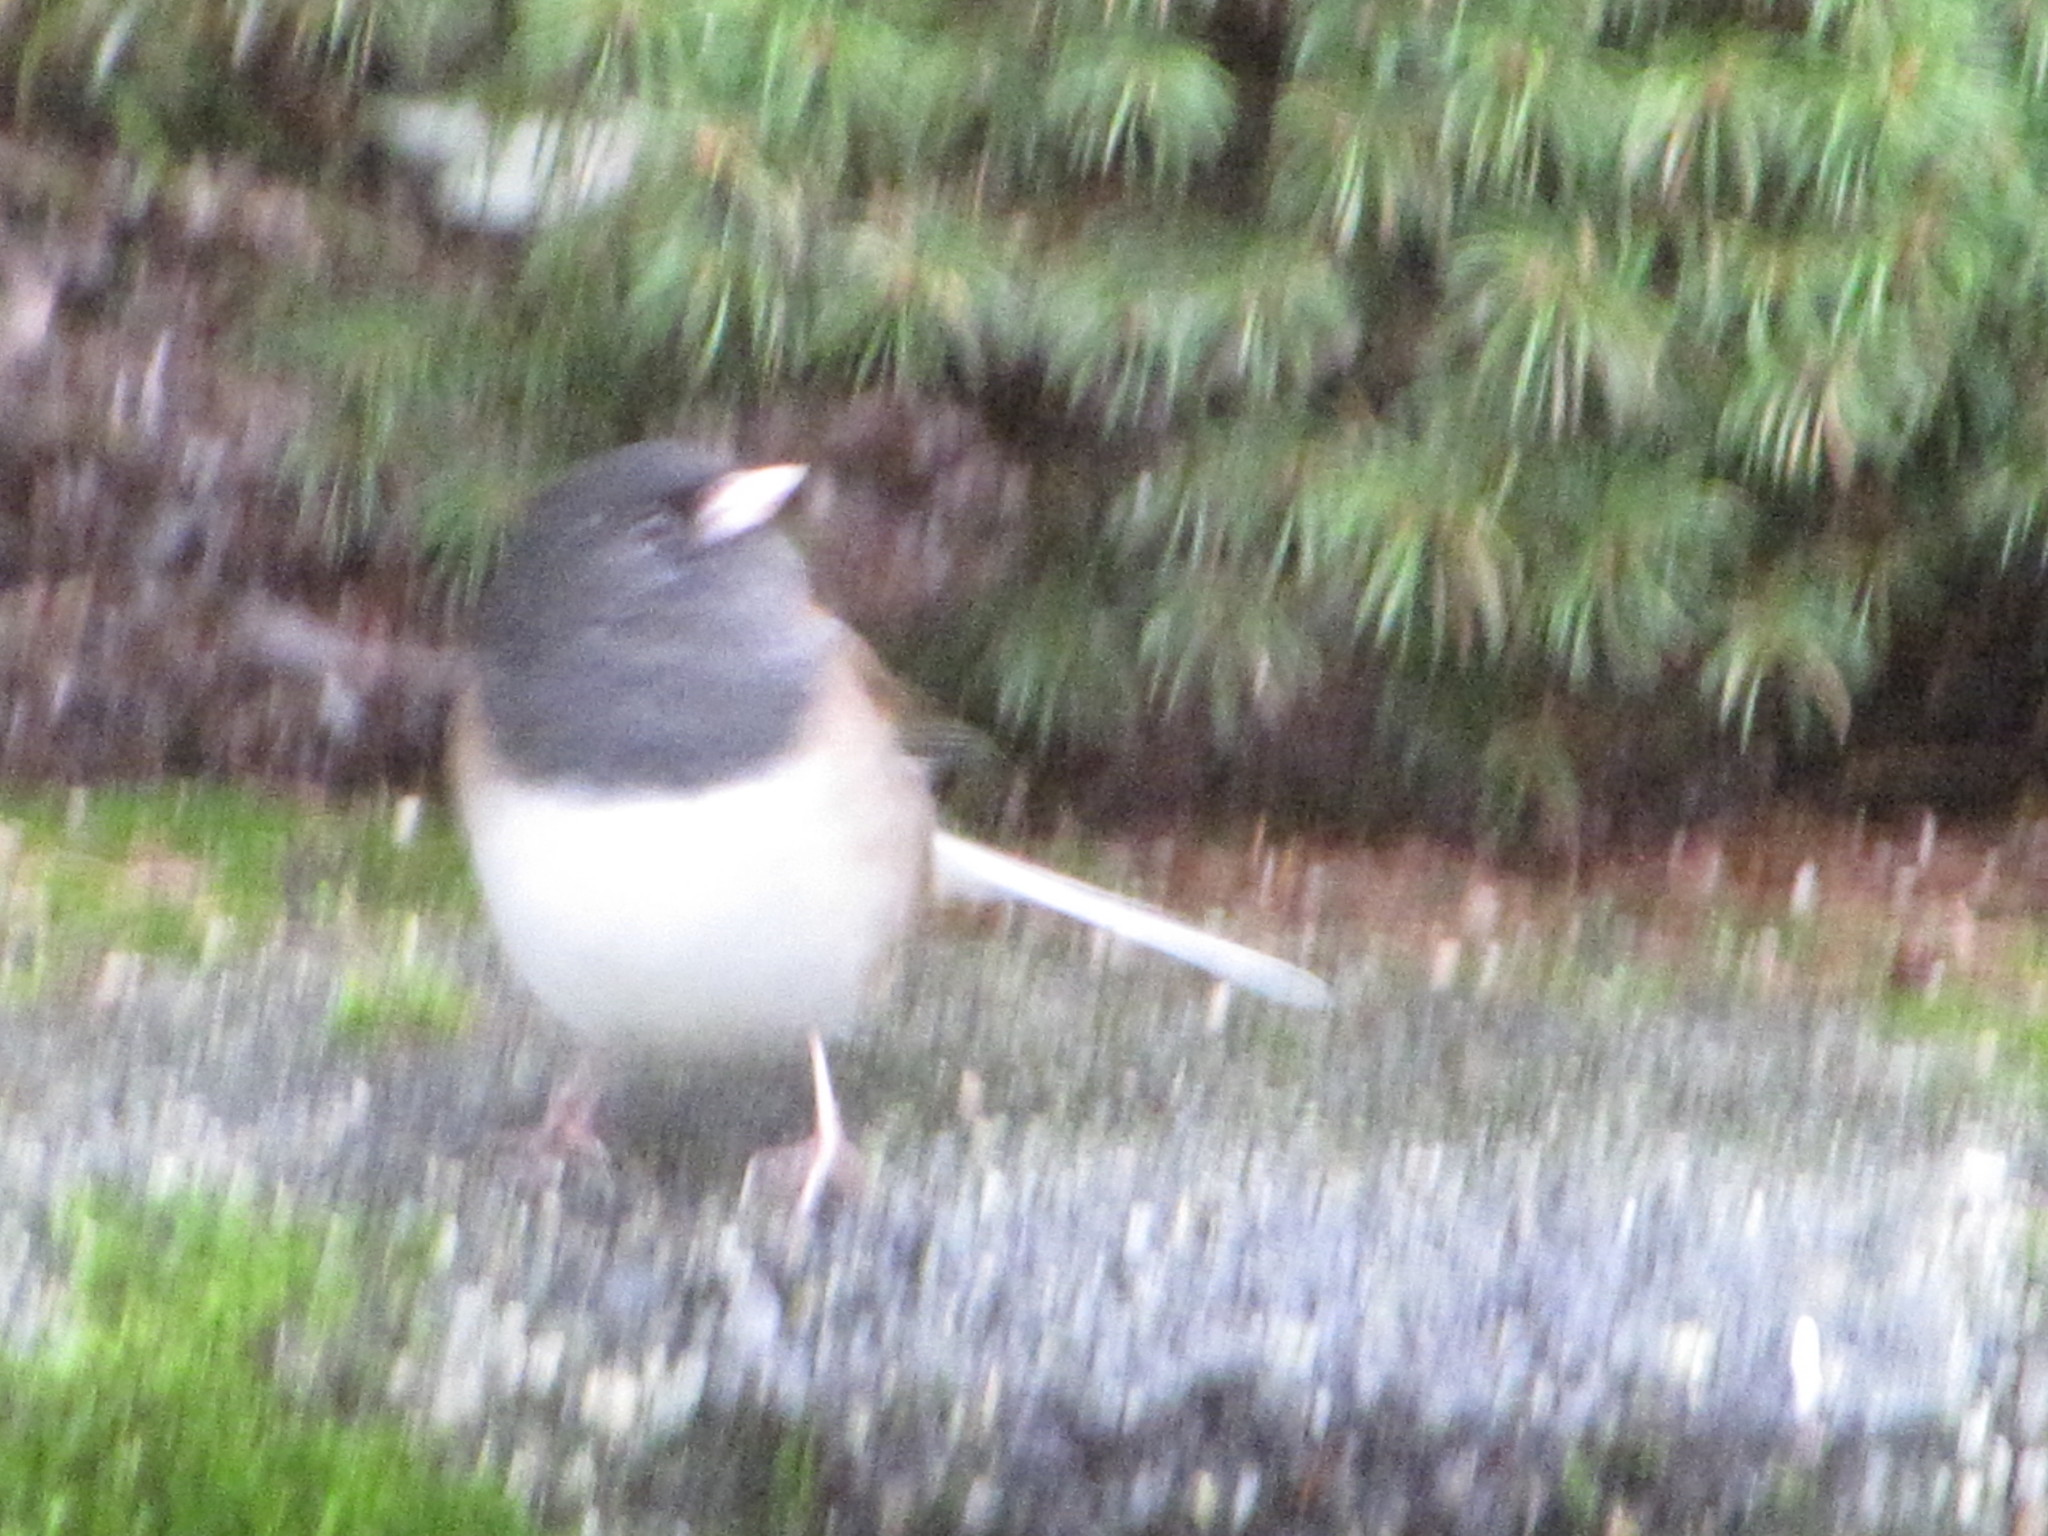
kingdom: Animalia
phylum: Chordata
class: Aves
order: Passeriformes
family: Passerellidae
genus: Junco
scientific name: Junco hyemalis
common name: Dark-eyed junco
